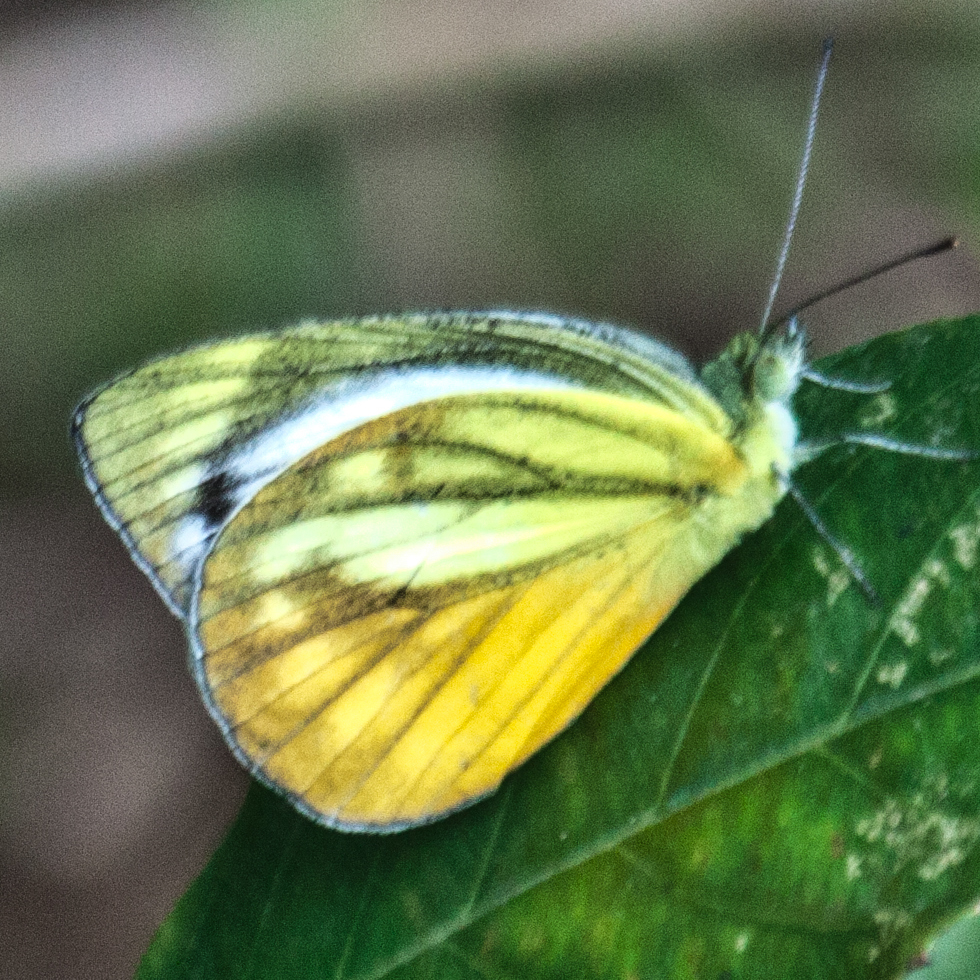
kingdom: Animalia
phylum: Arthropoda
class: Insecta
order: Lepidoptera
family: Pieridae
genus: Cepora
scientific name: Cepora nadina
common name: Lesser gull
